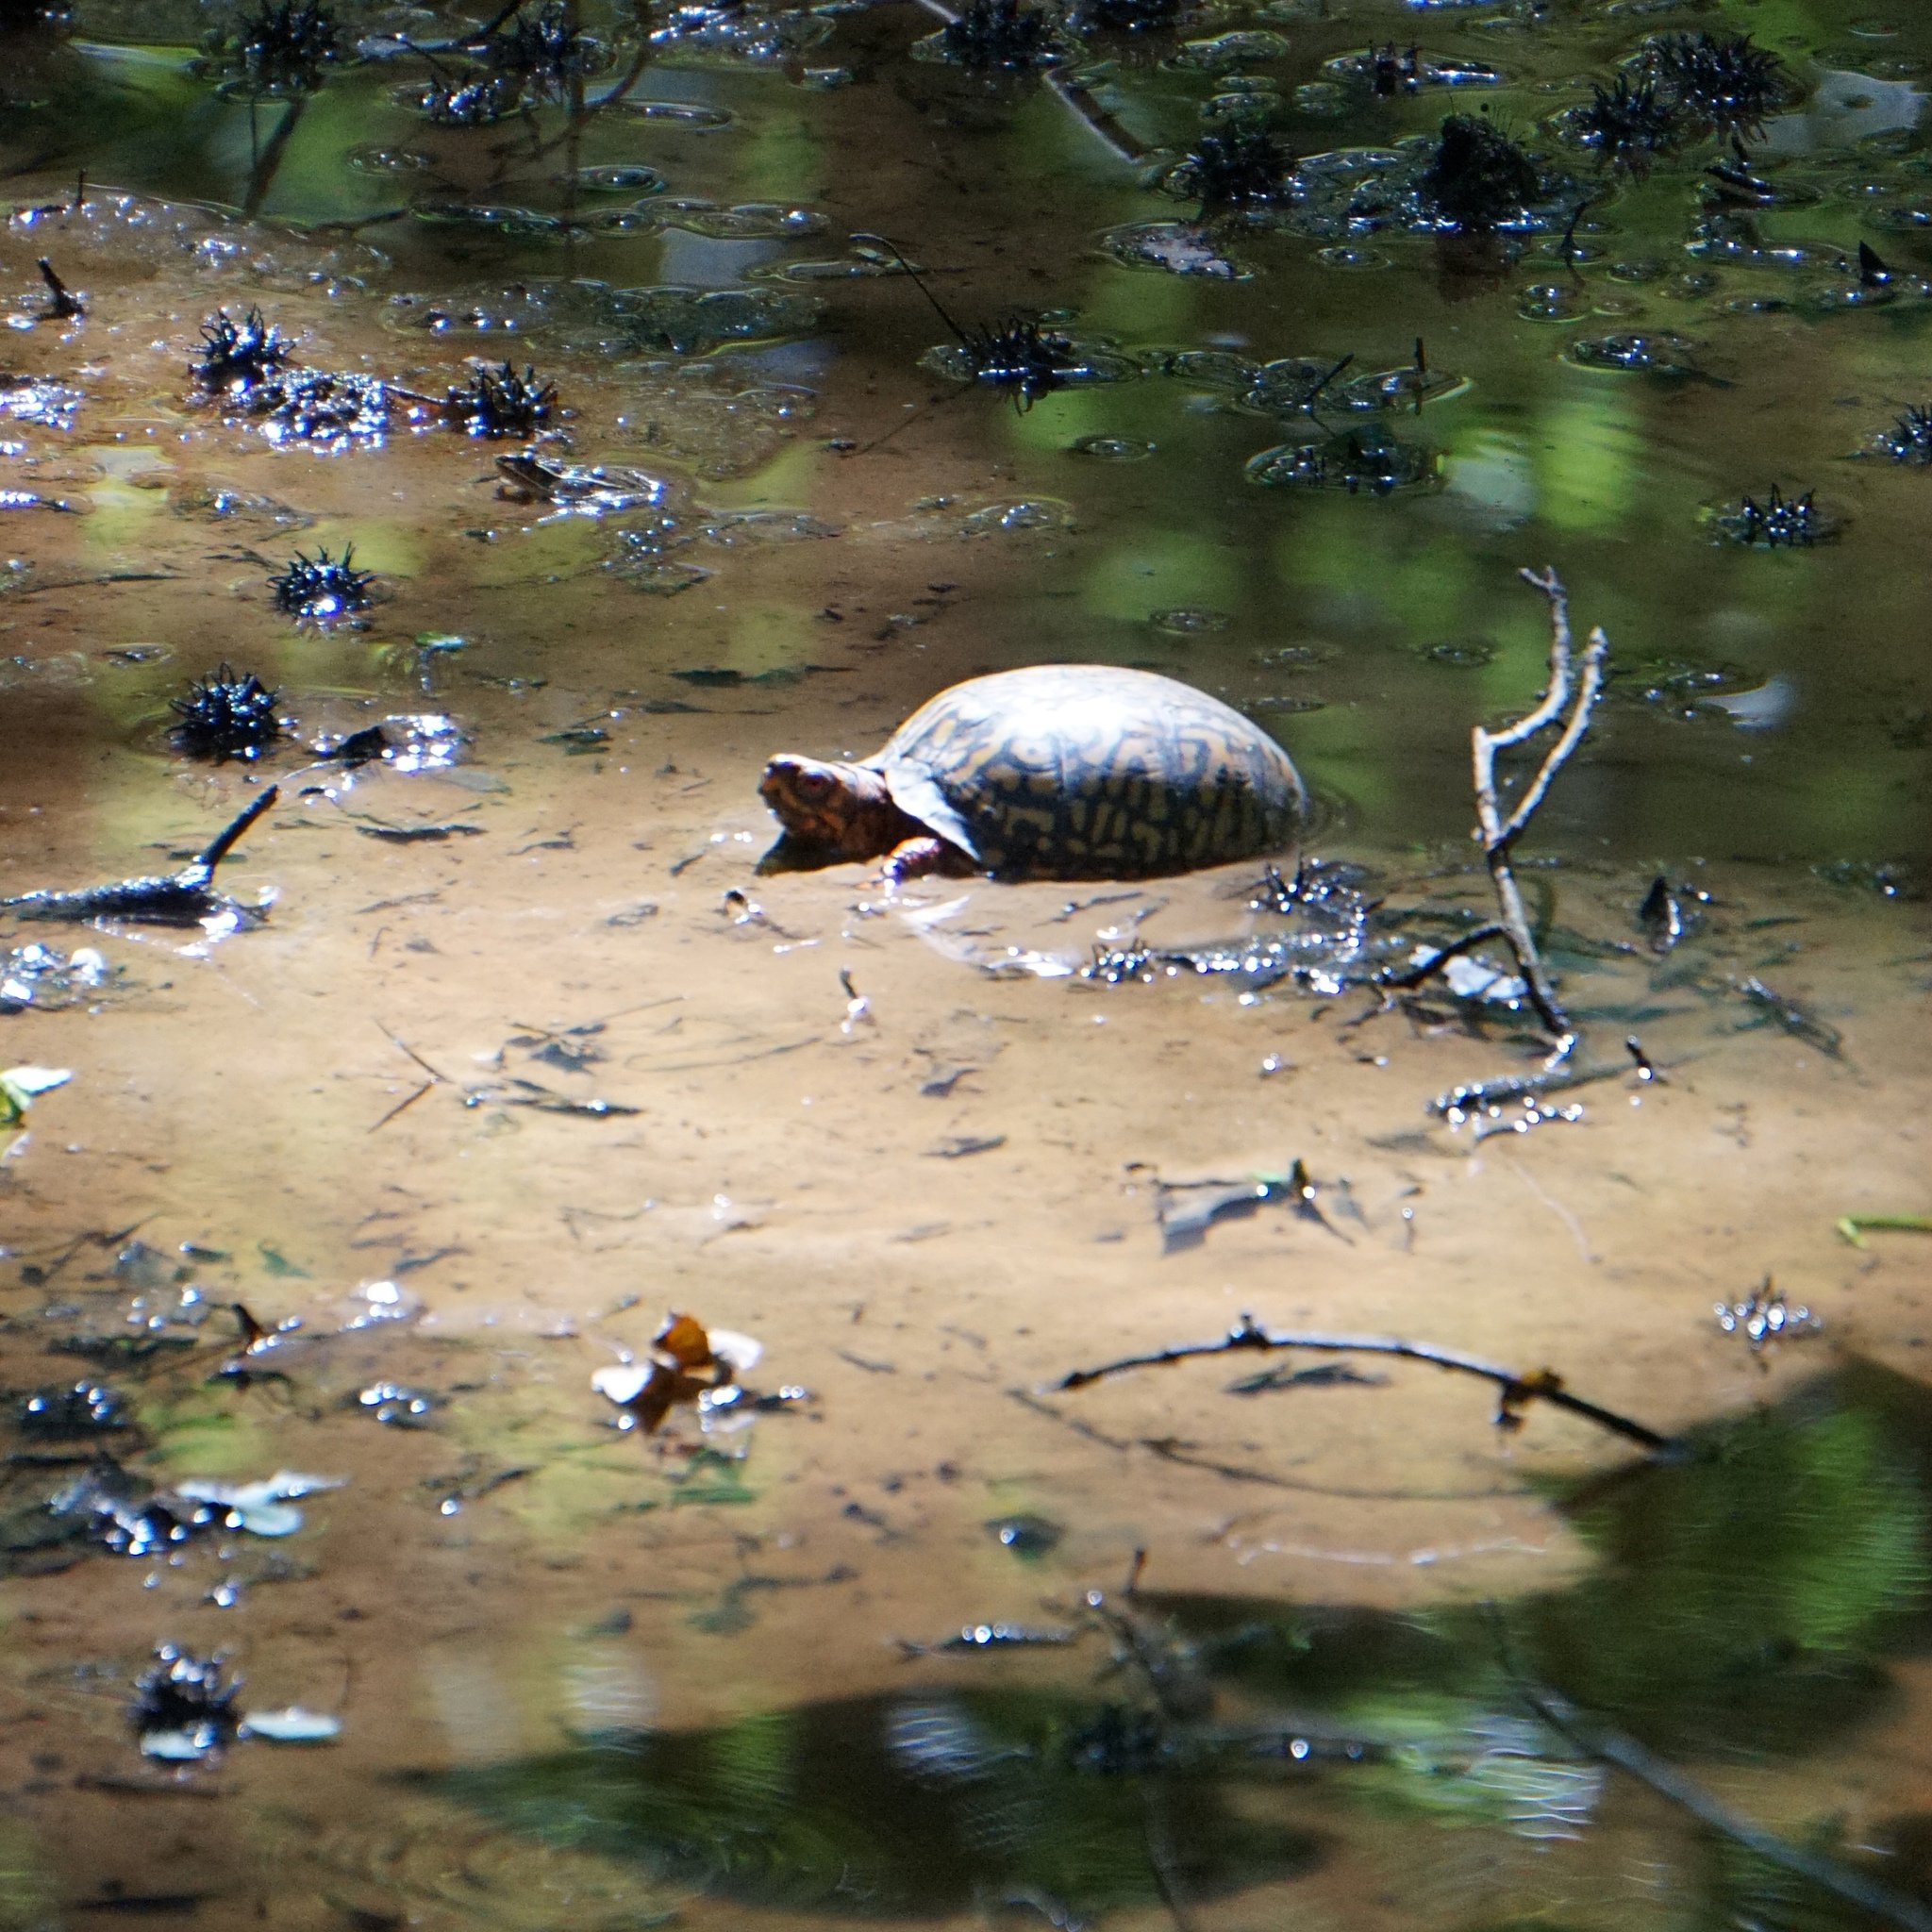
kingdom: Animalia
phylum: Chordata
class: Testudines
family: Emydidae
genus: Terrapene
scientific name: Terrapene carolina
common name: Common box turtle
